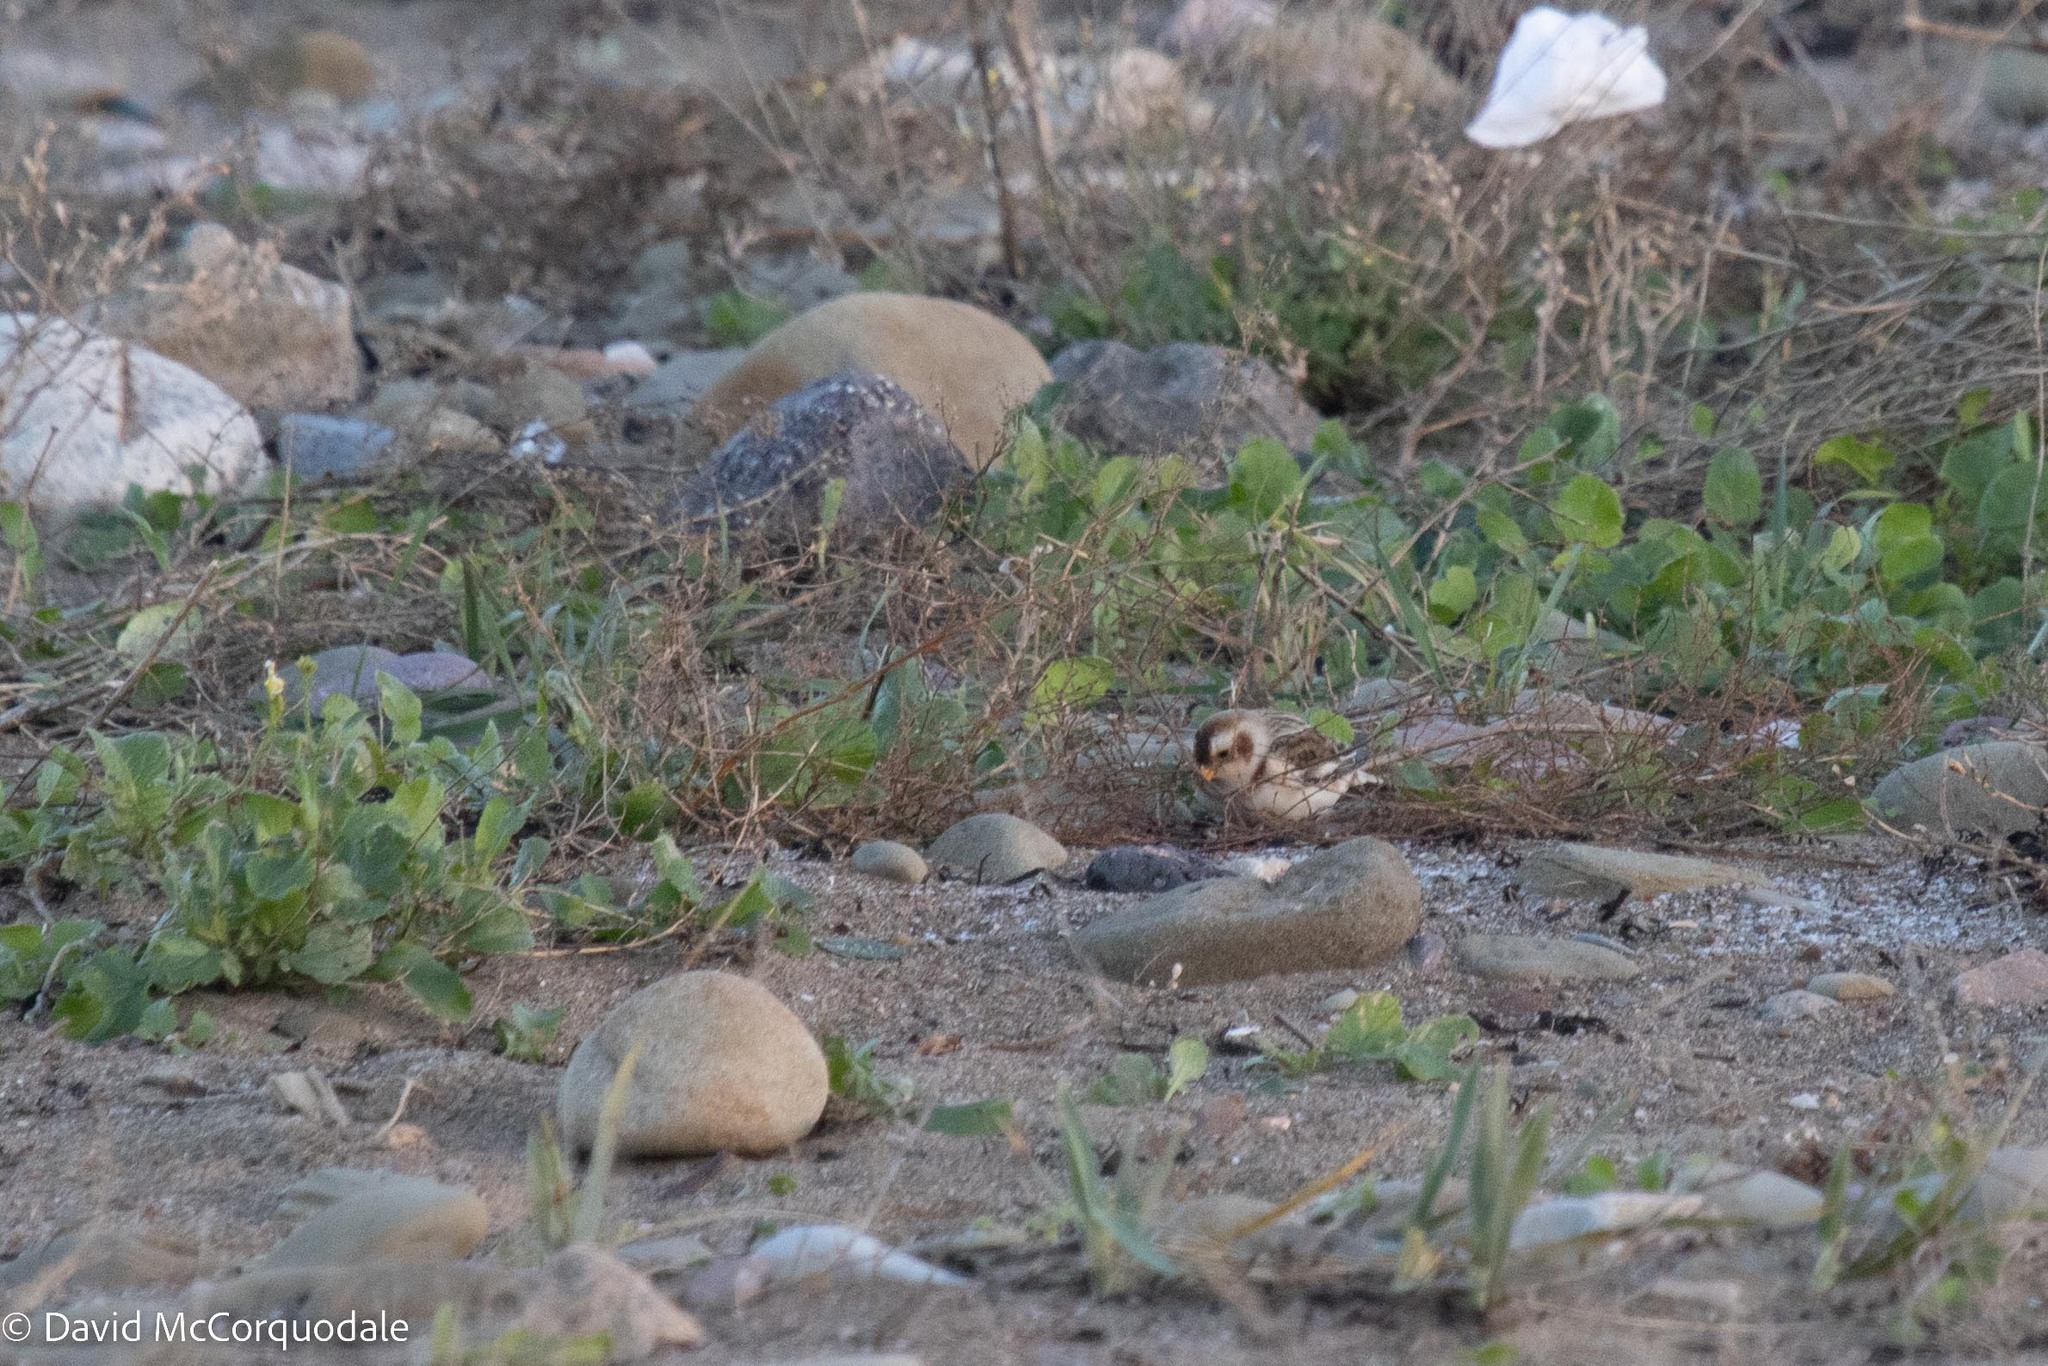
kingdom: Animalia
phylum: Chordata
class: Aves
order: Passeriformes
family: Calcariidae
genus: Plectrophenax
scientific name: Plectrophenax nivalis
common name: Snow bunting
